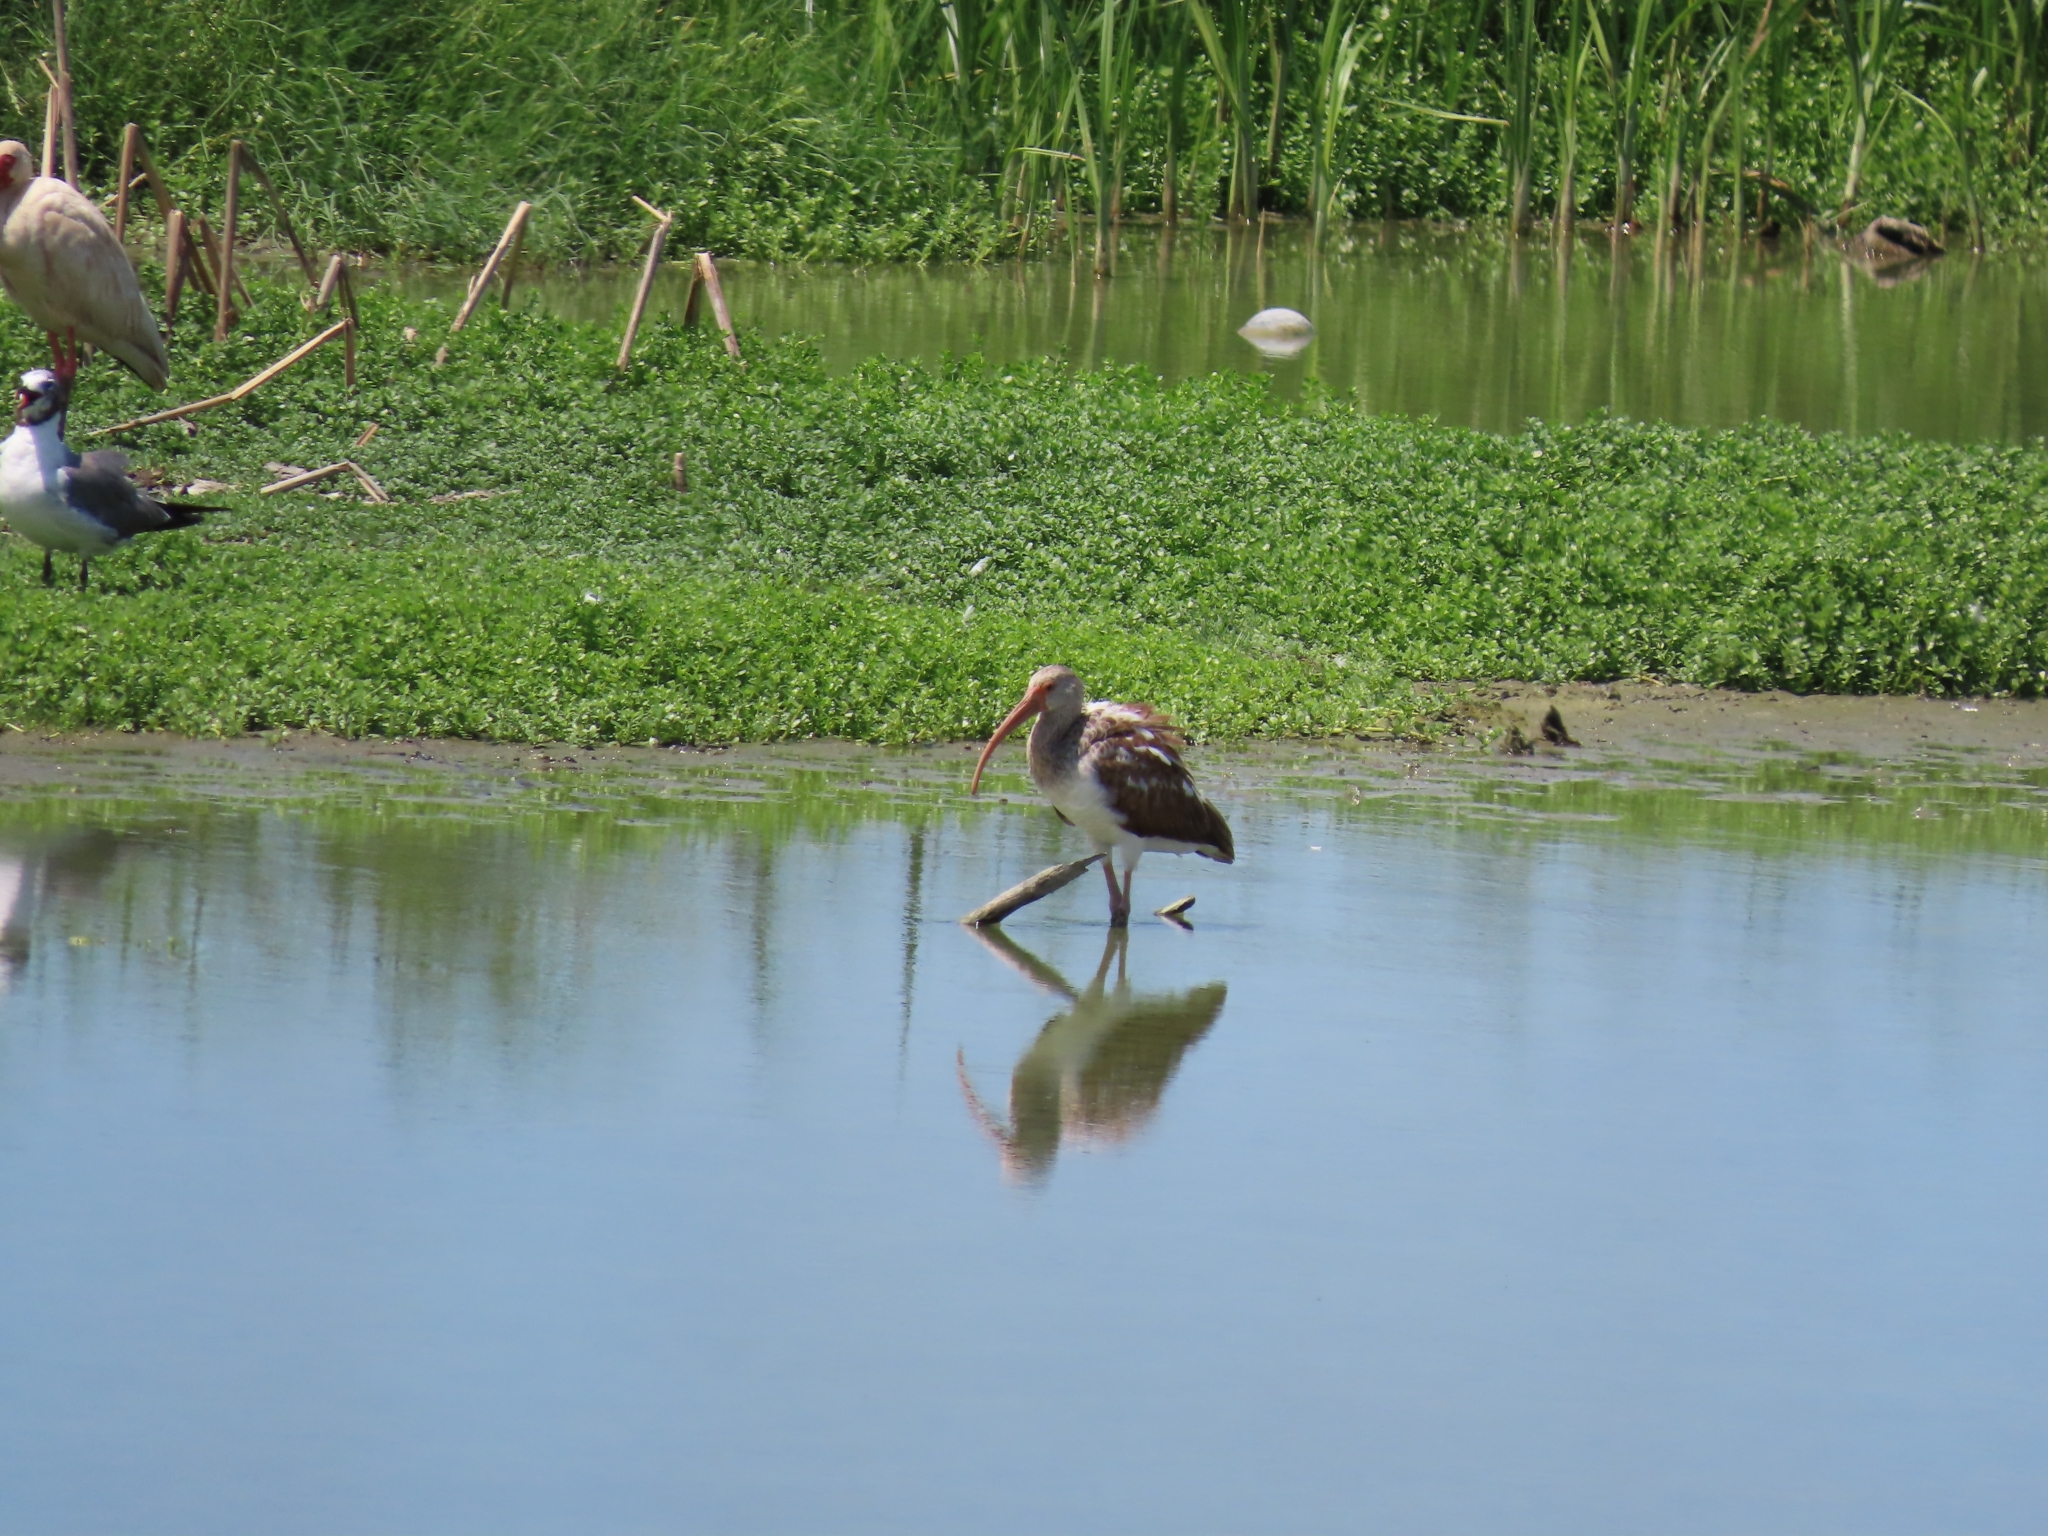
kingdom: Animalia
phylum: Chordata
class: Aves
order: Pelecaniformes
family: Threskiornithidae
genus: Eudocimus
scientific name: Eudocimus albus
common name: White ibis
